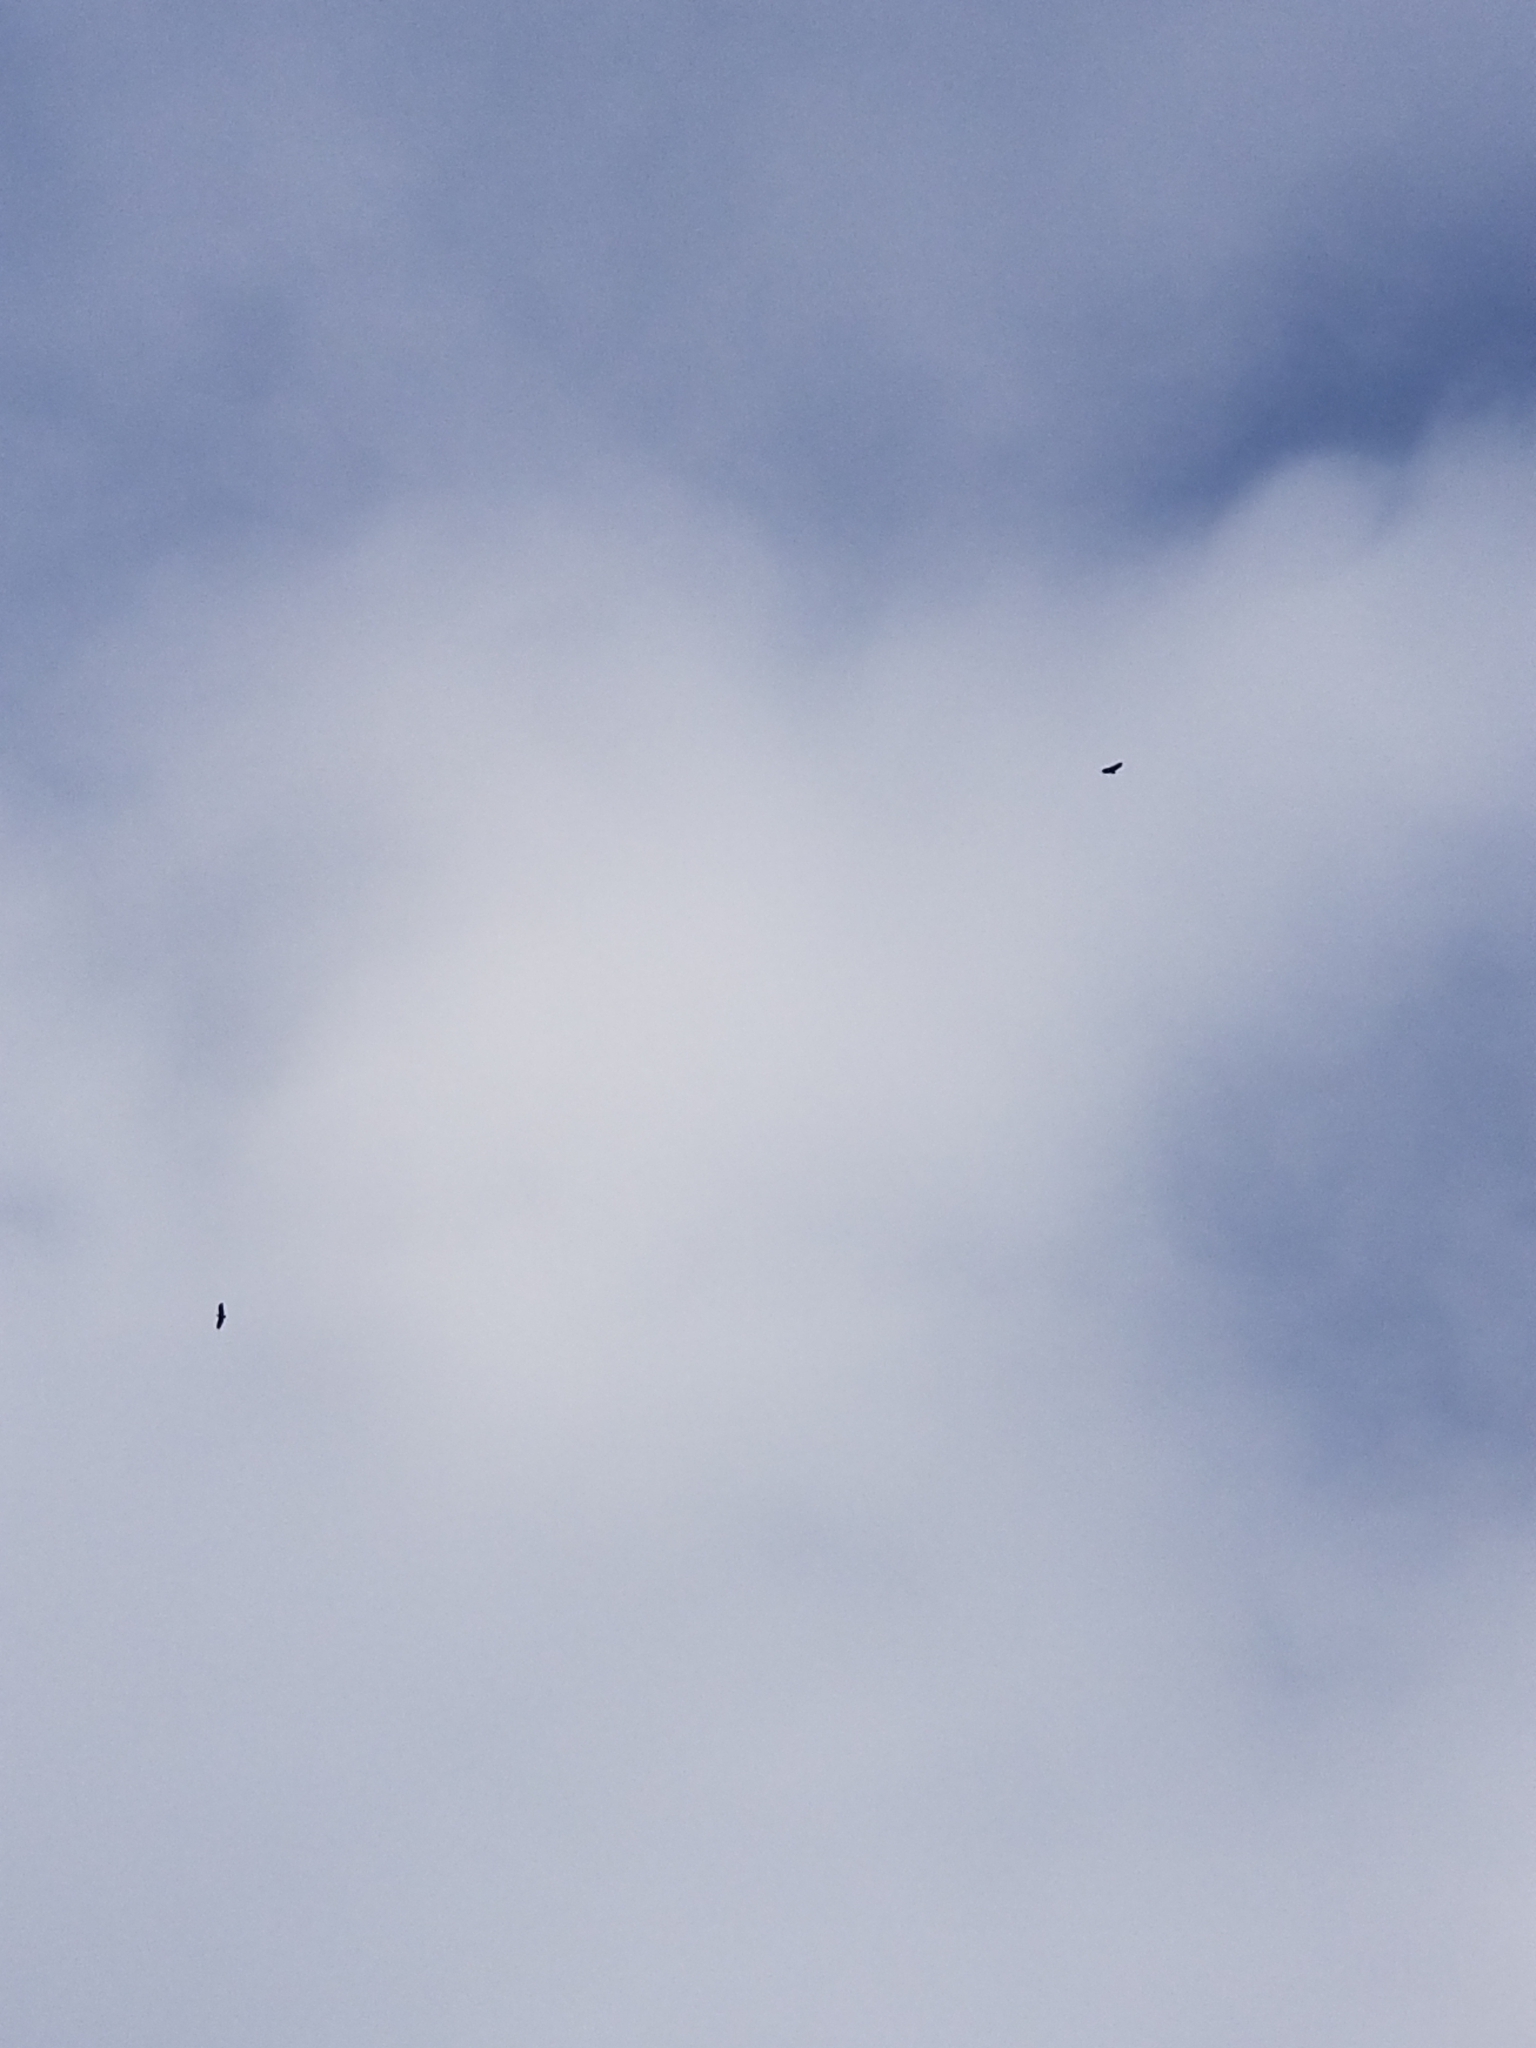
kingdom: Animalia
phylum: Chordata
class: Aves
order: Accipitriformes
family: Accipitridae
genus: Buteo
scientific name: Buteo jamaicensis
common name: Red-tailed hawk
